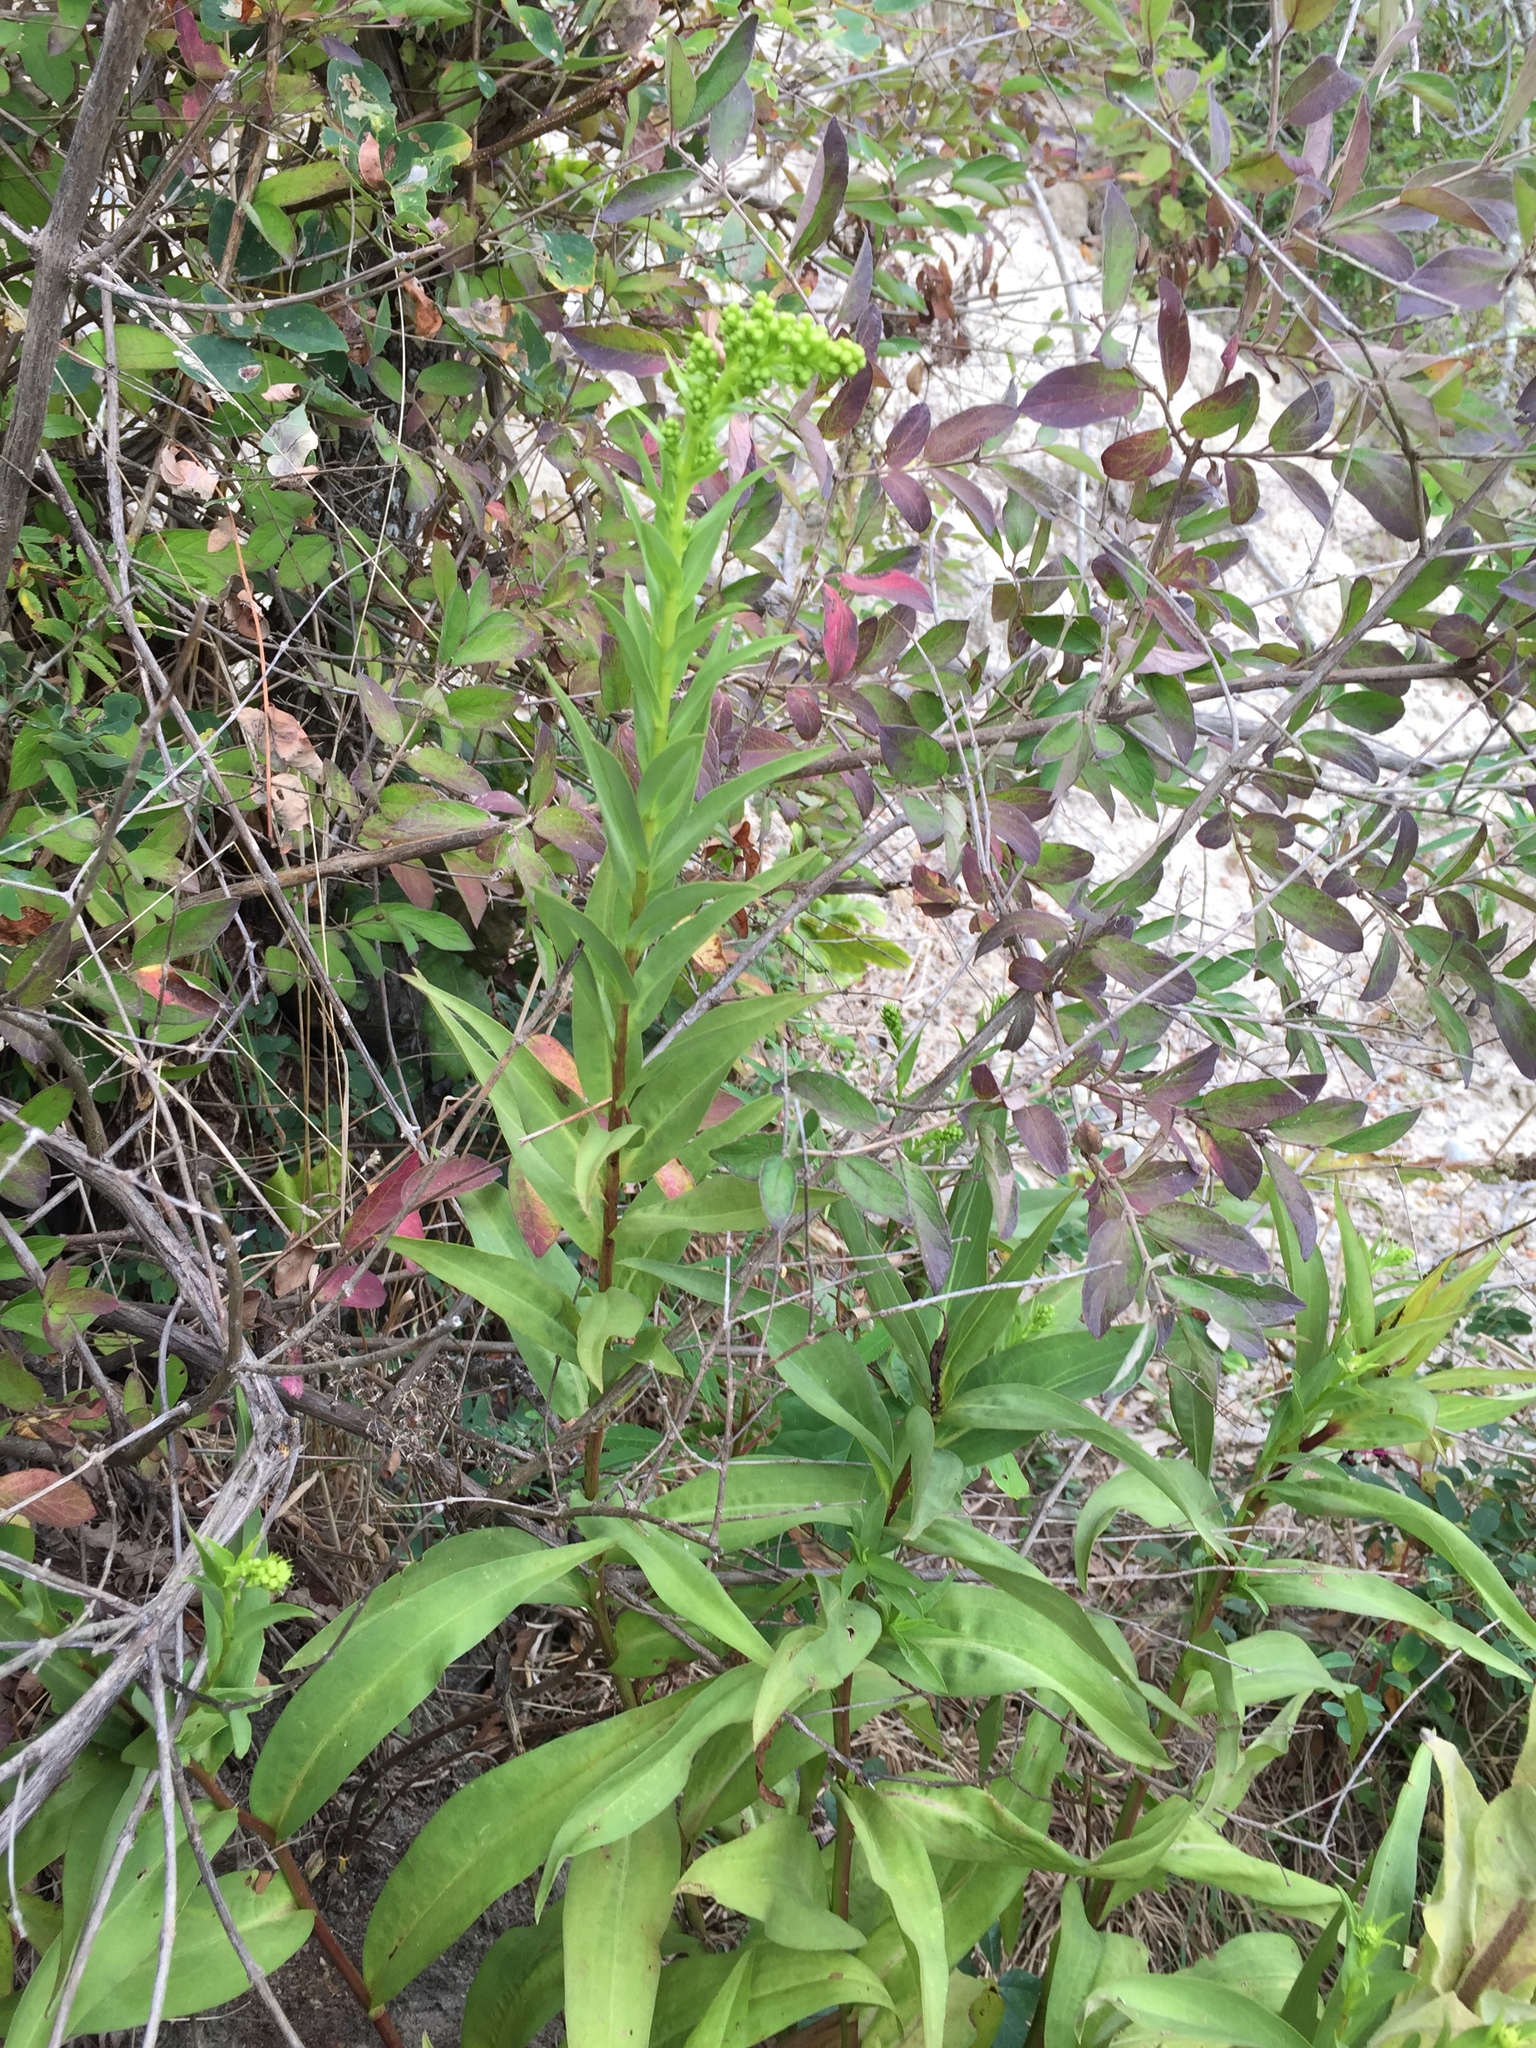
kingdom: Plantae
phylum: Tracheophyta
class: Magnoliopsida
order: Asterales
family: Asteraceae
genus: Solidago
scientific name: Solidago sempervirens
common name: Salt-marsh goldenrod
